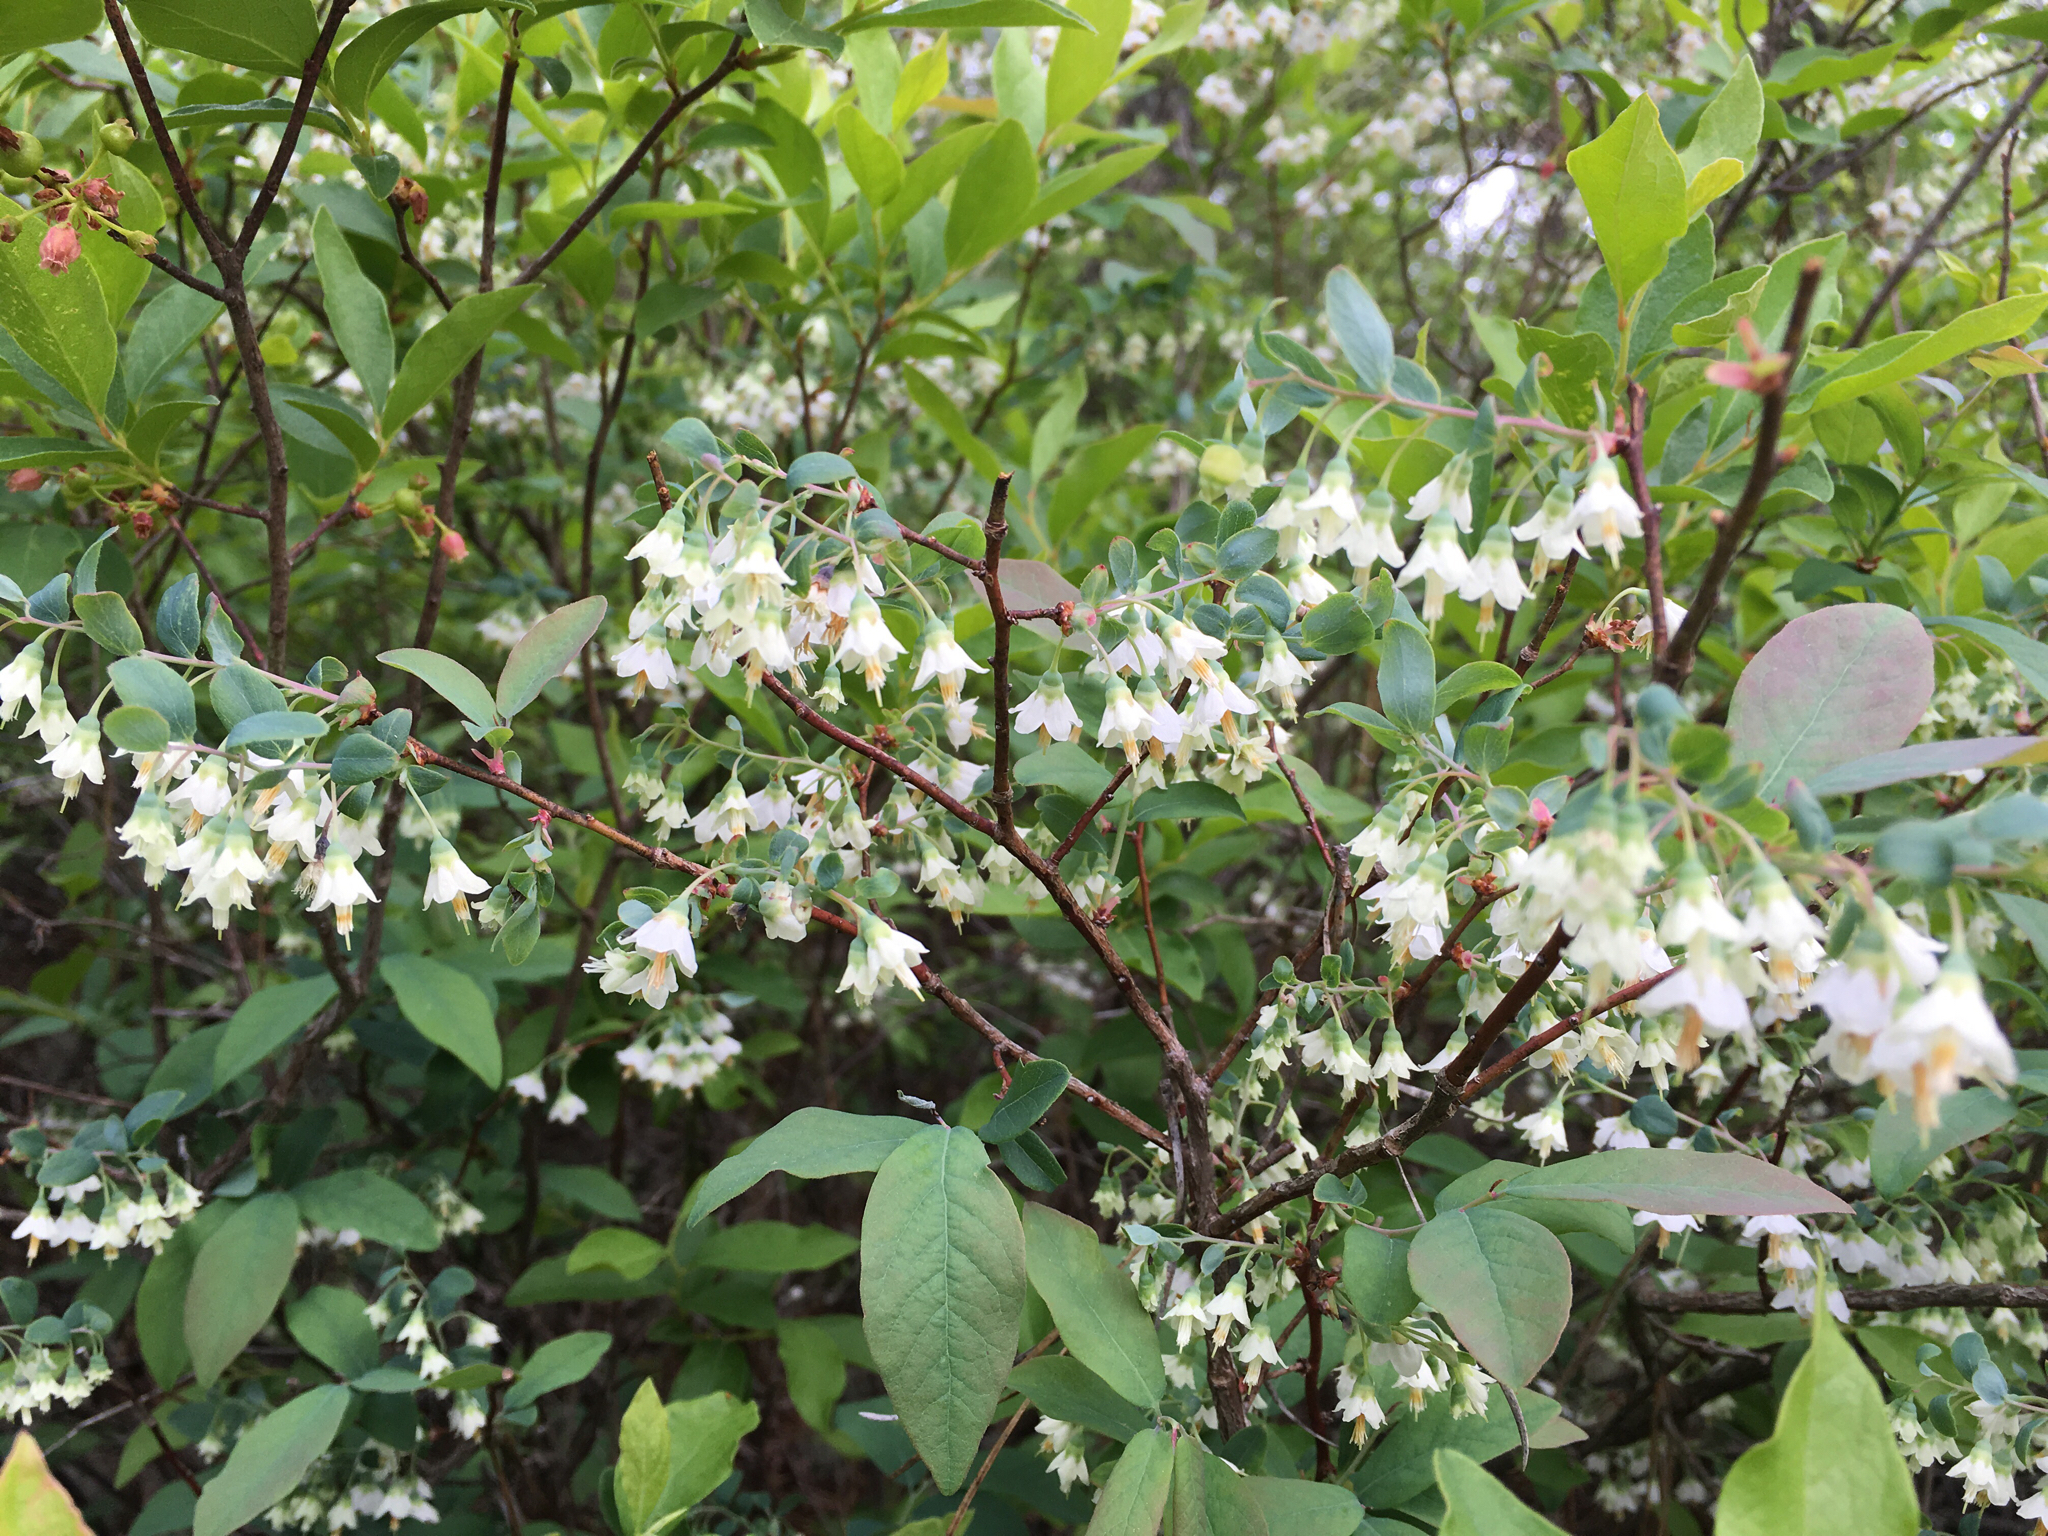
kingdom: Plantae
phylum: Tracheophyta
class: Magnoliopsida
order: Ericales
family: Ericaceae
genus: Vaccinium
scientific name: Vaccinium stamineum
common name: Deerberry
